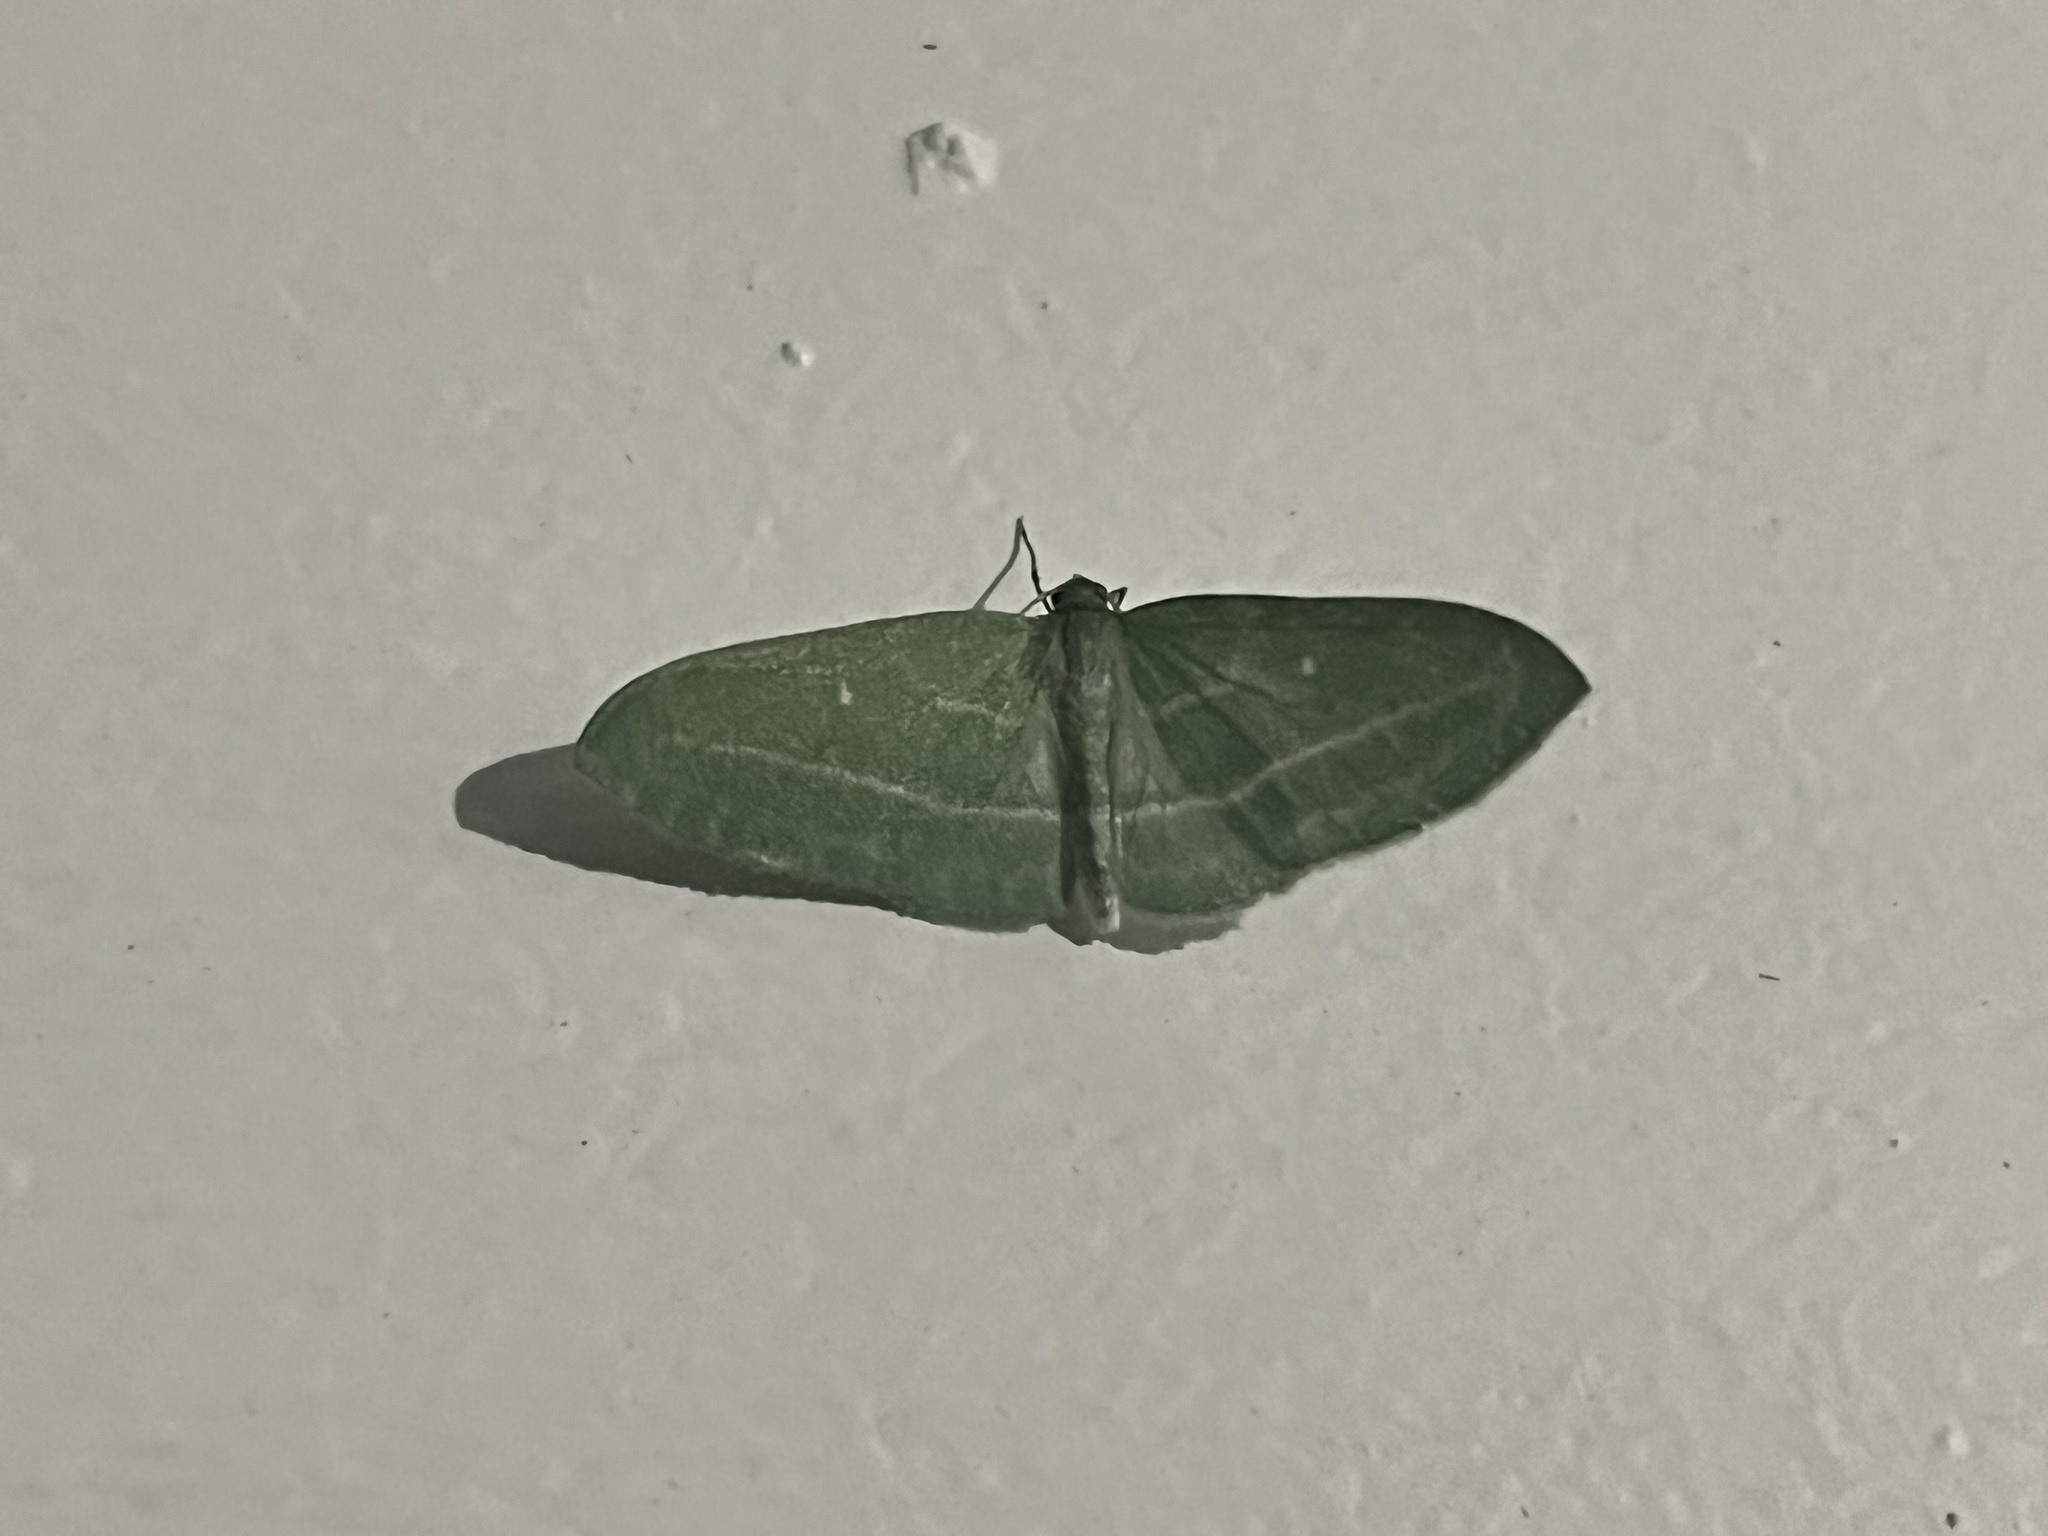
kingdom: Animalia
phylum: Arthropoda
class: Insecta
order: Lepidoptera
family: Geometridae
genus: Dyspteris
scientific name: Dyspteris abortivaria
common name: Bad-wing
